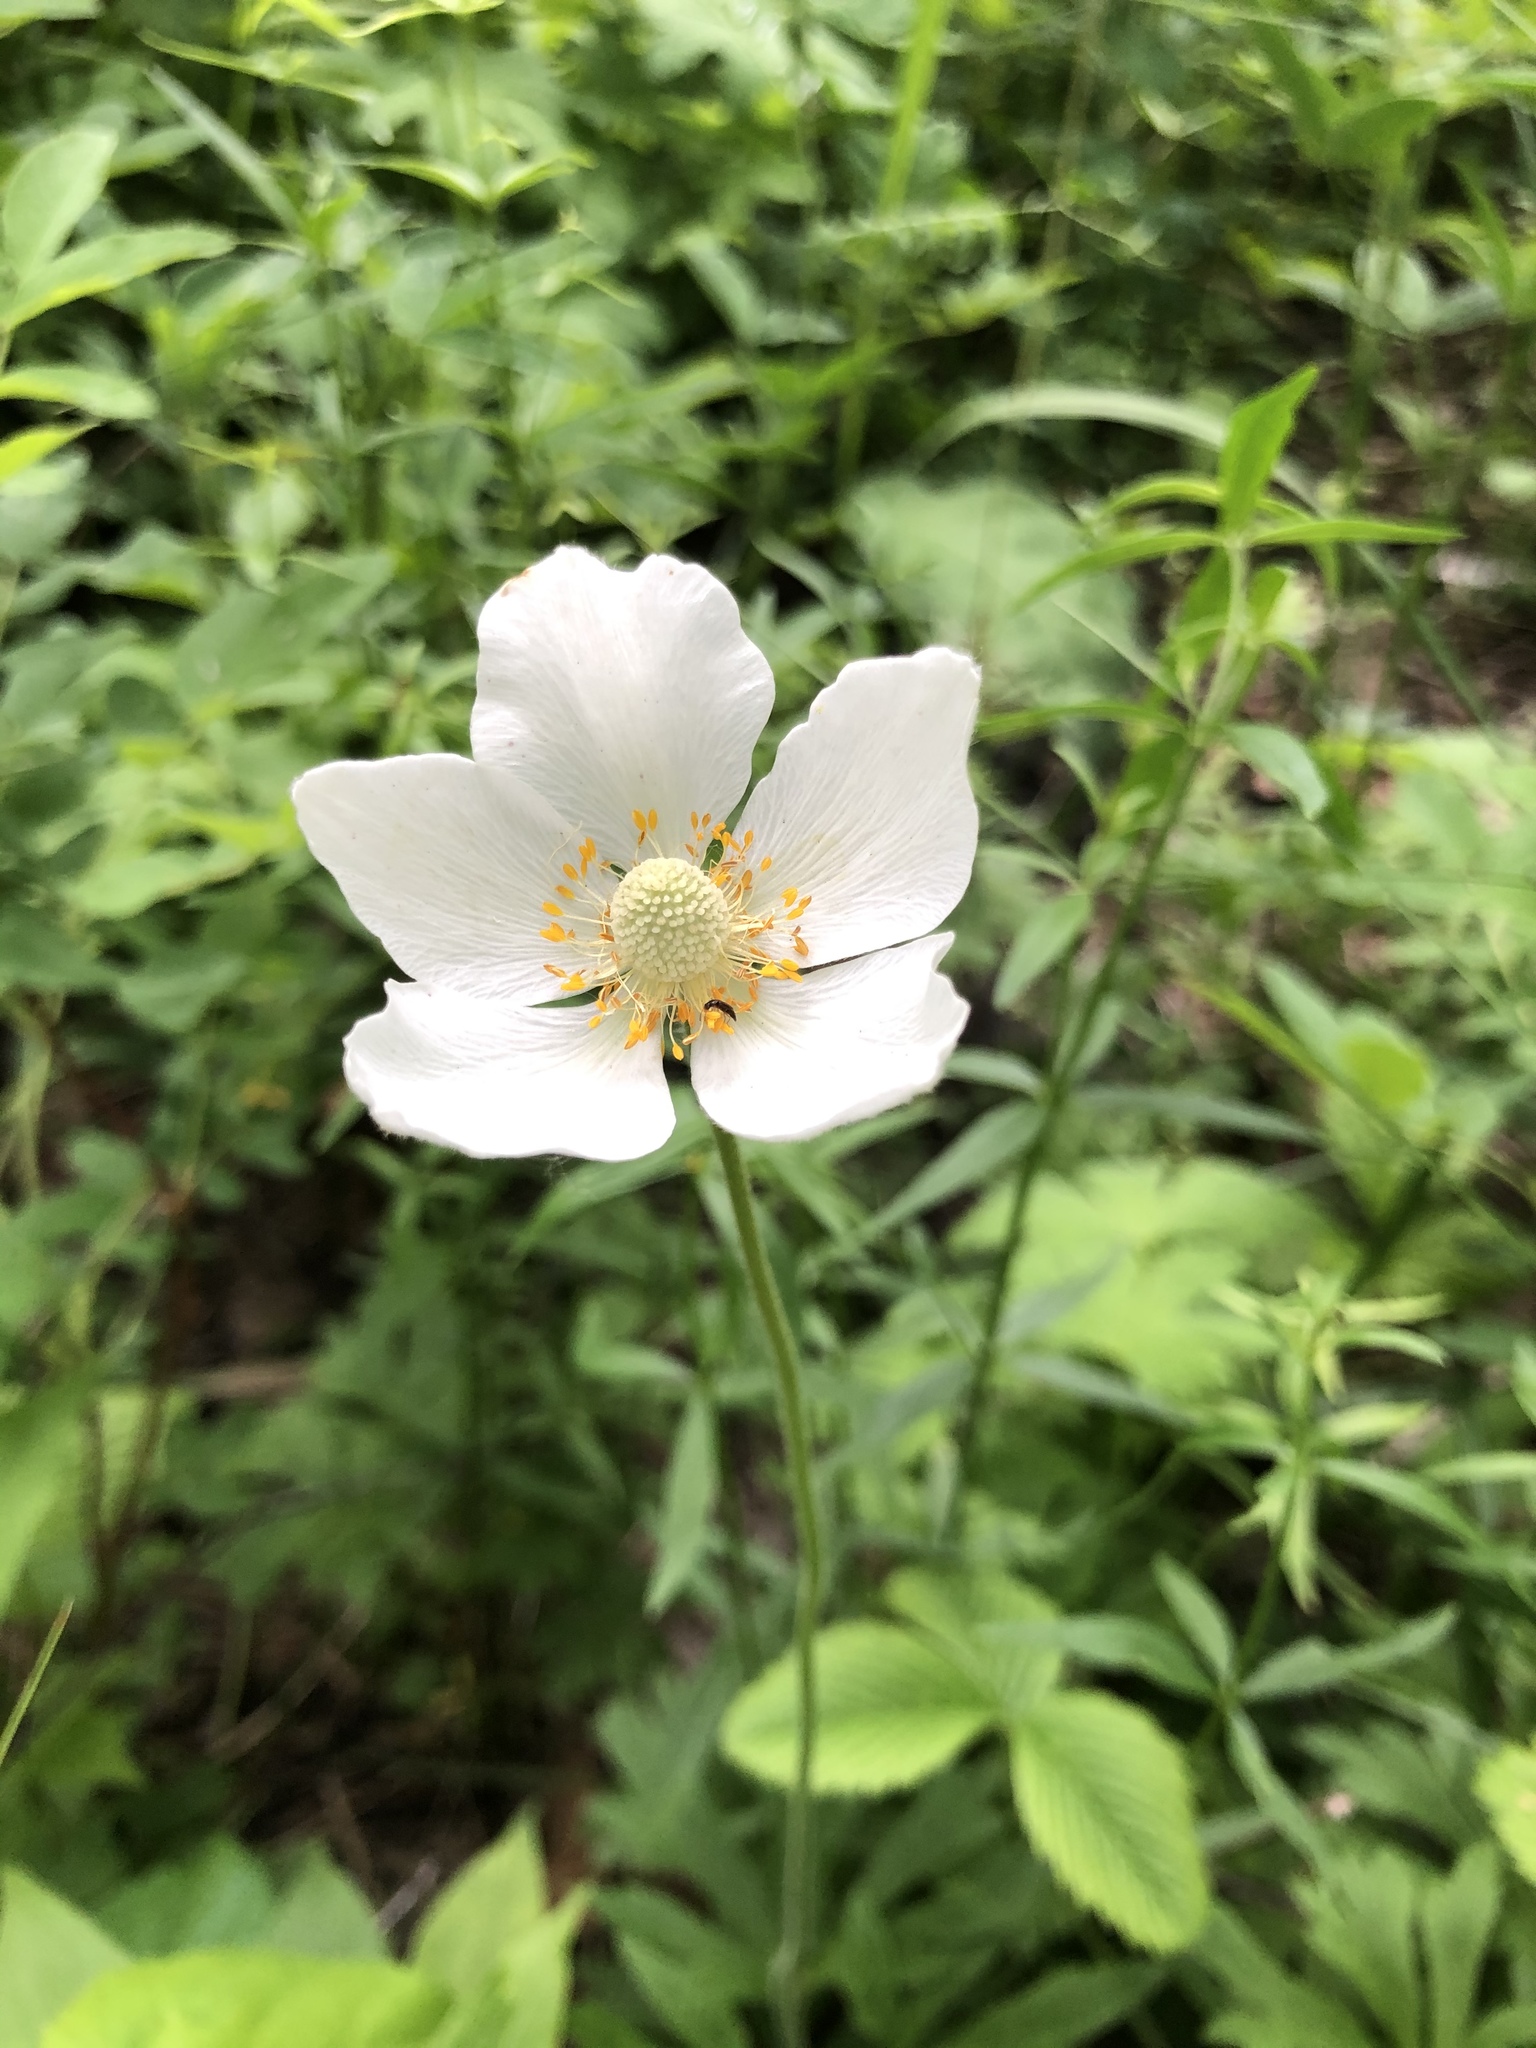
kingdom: Plantae
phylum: Tracheophyta
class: Magnoliopsida
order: Ranunculales
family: Ranunculaceae
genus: Anemone
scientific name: Anemone sylvestris
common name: Snowdrop anemone
